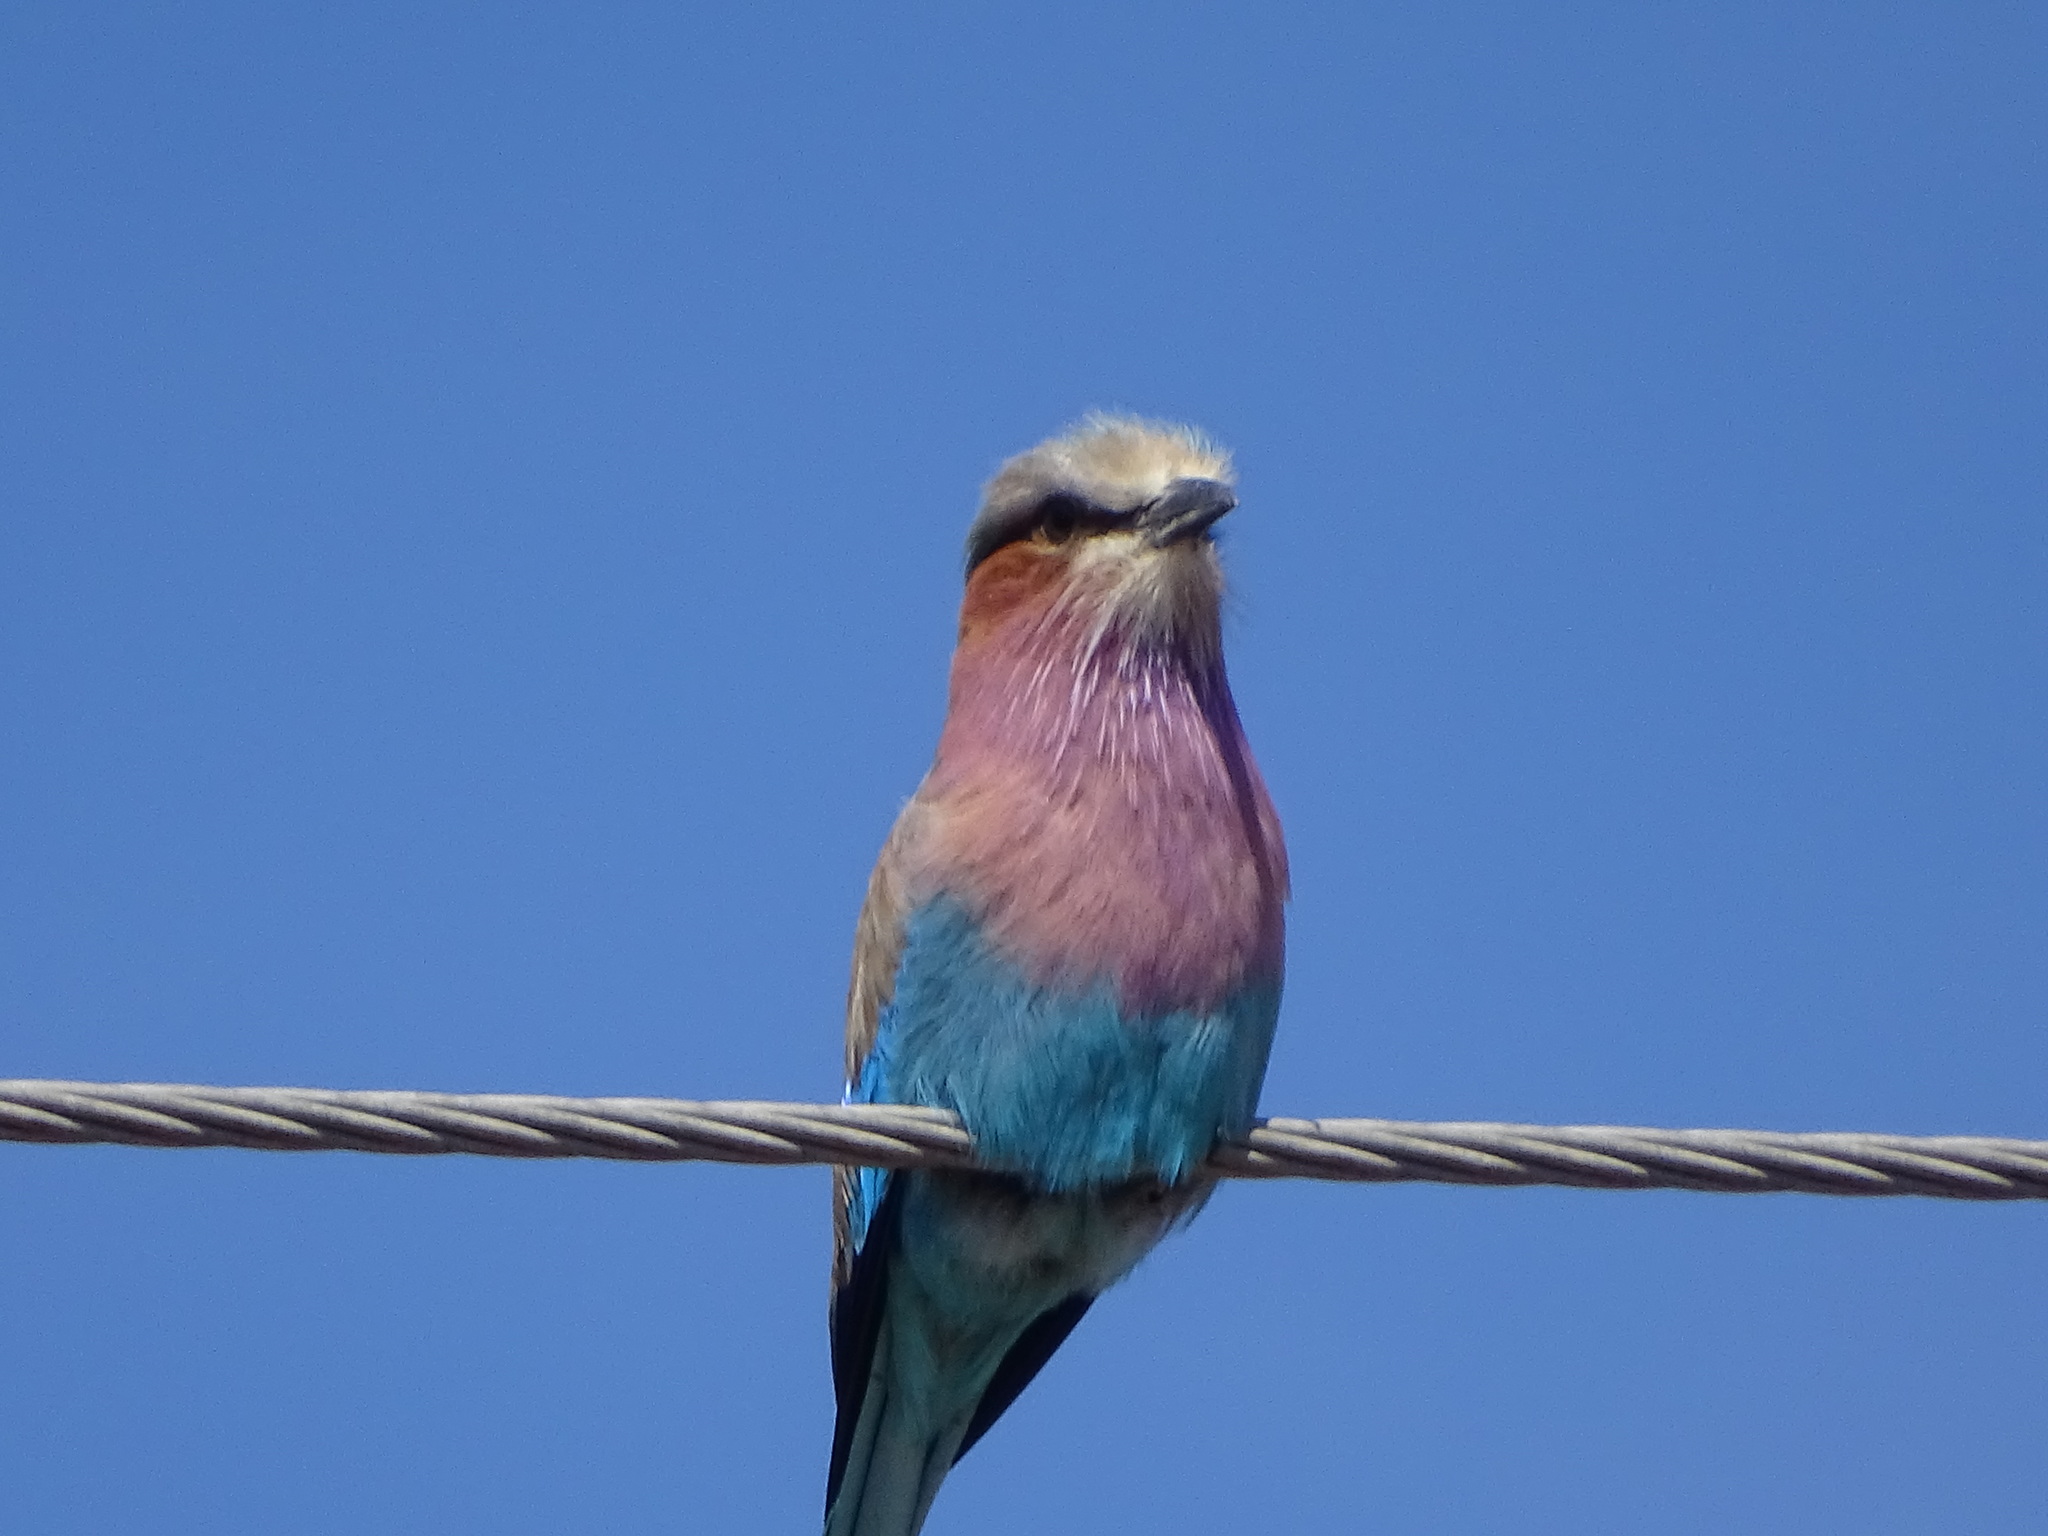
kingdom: Animalia
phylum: Chordata
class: Aves
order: Coraciiformes
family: Coraciidae
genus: Coracias
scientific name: Coracias caudatus
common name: Lilac-breasted roller
